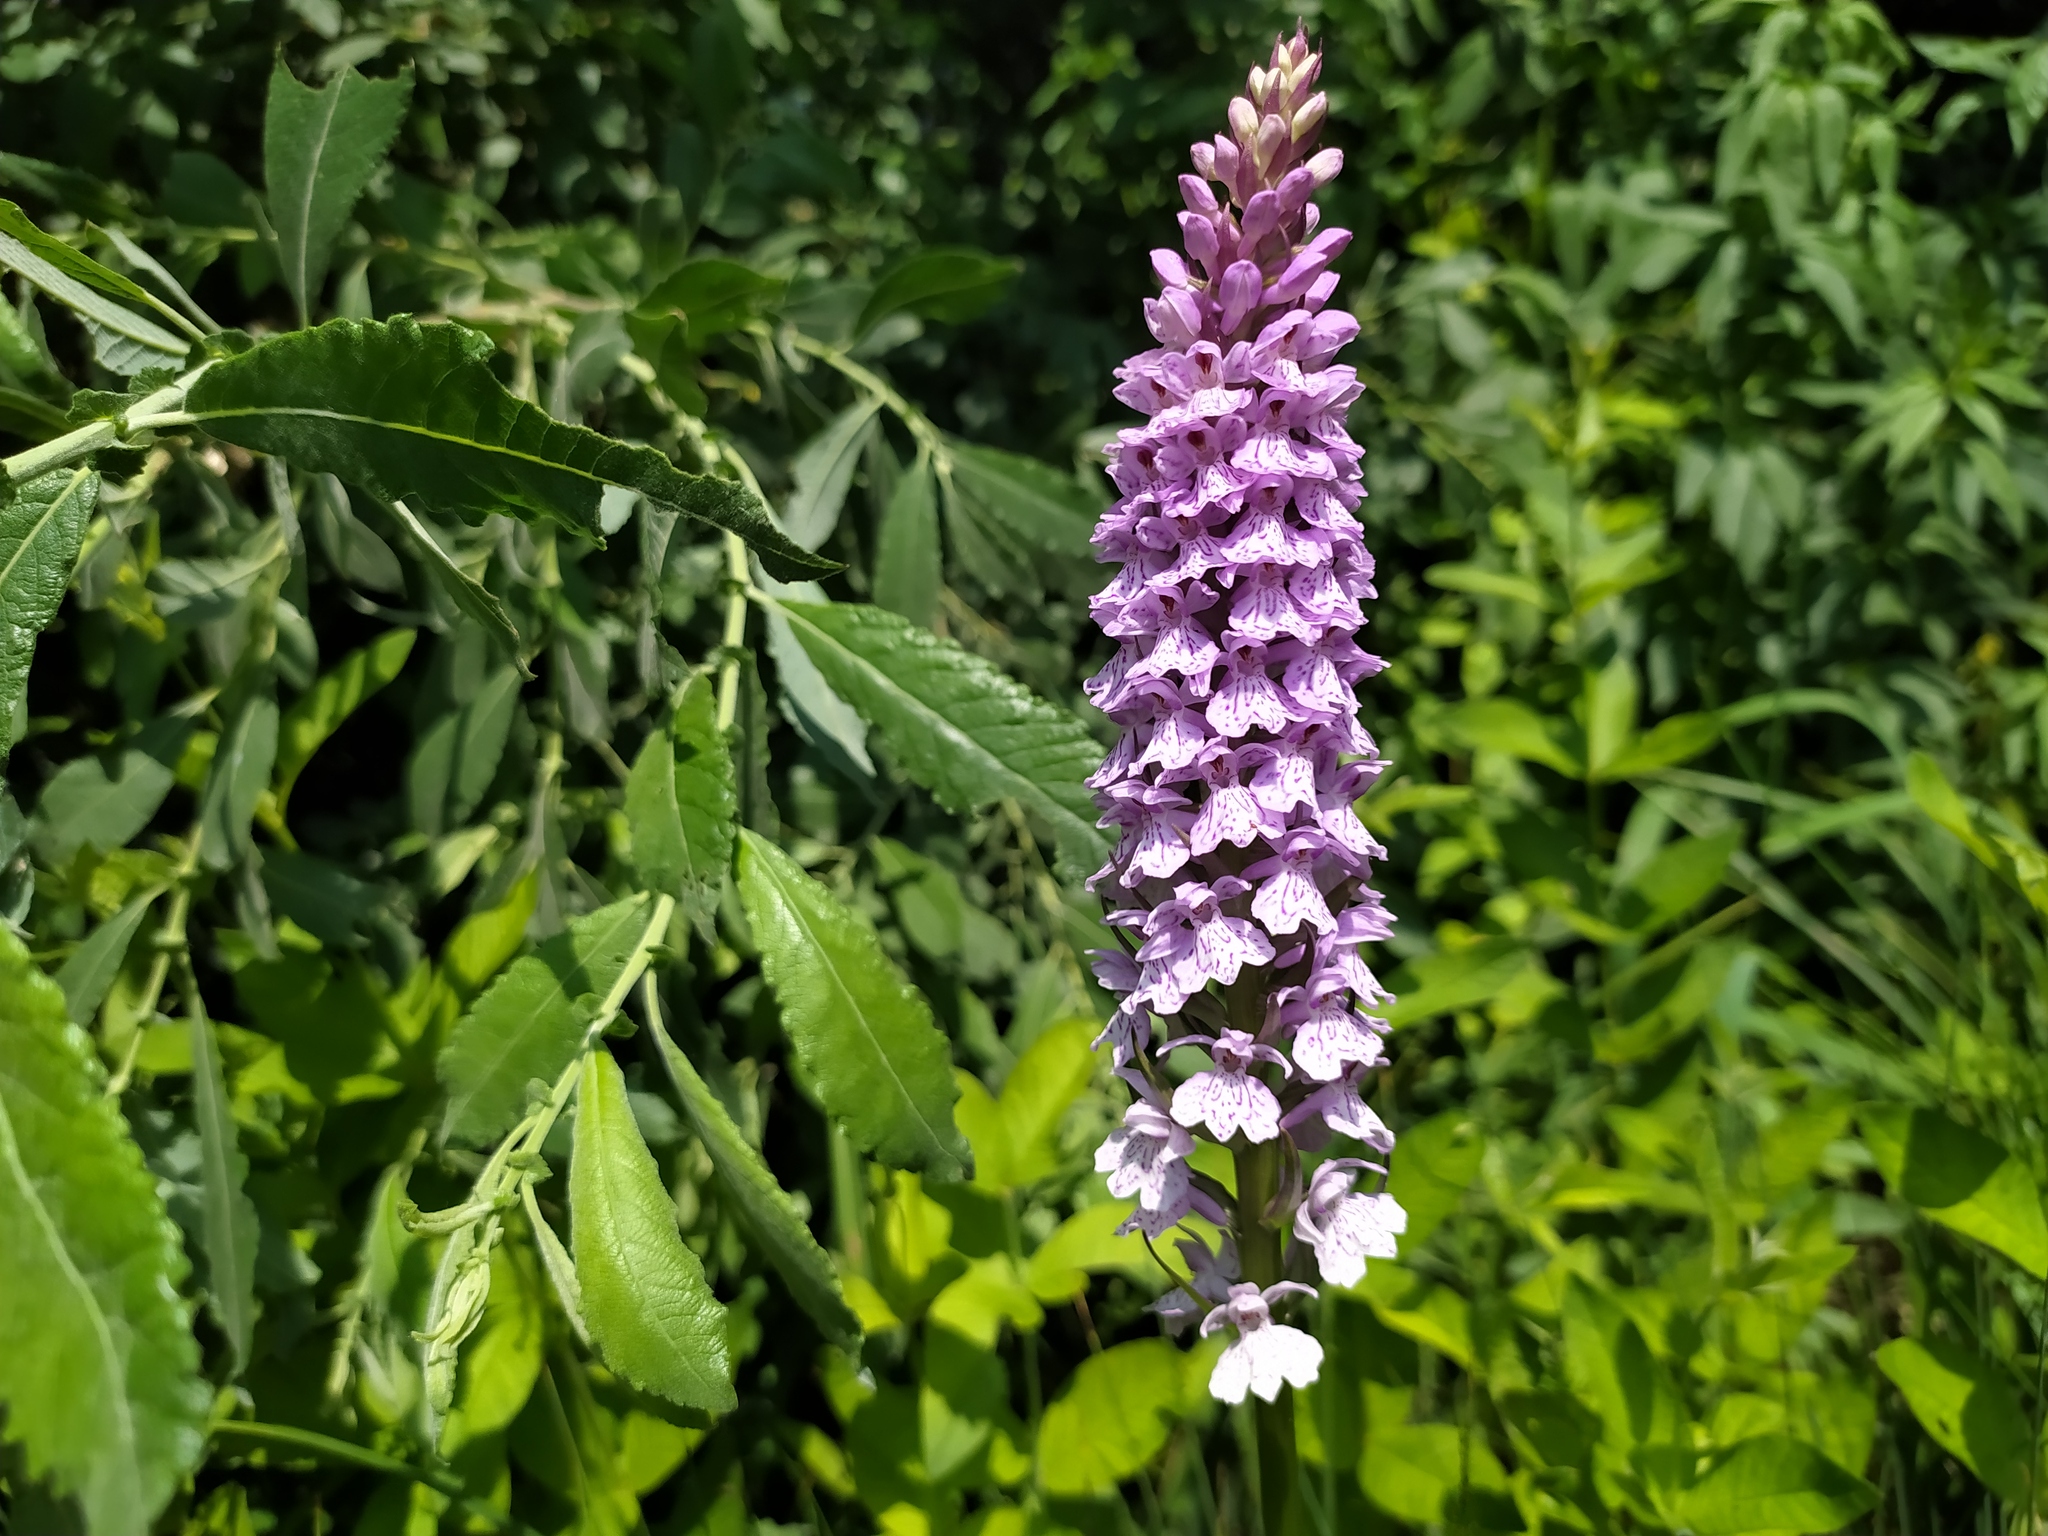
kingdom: Plantae
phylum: Tracheophyta
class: Liliopsida
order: Asparagales
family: Orchidaceae
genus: Dactylorhiza
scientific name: Dactylorhiza maculata
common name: Heath spotted-orchid
